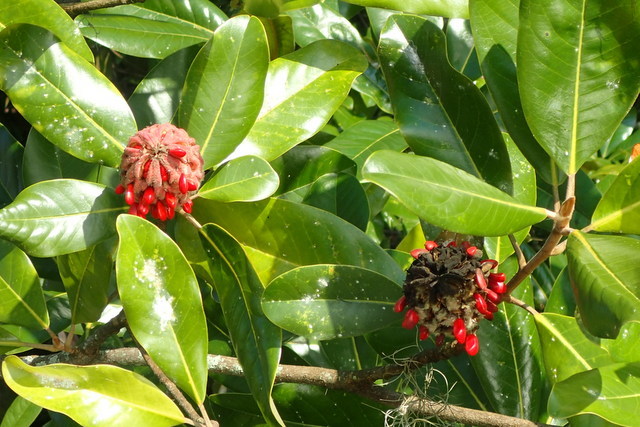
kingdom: Plantae
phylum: Tracheophyta
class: Magnoliopsida
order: Magnoliales
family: Magnoliaceae
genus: Magnolia
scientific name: Magnolia grandiflora
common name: Southern magnolia
